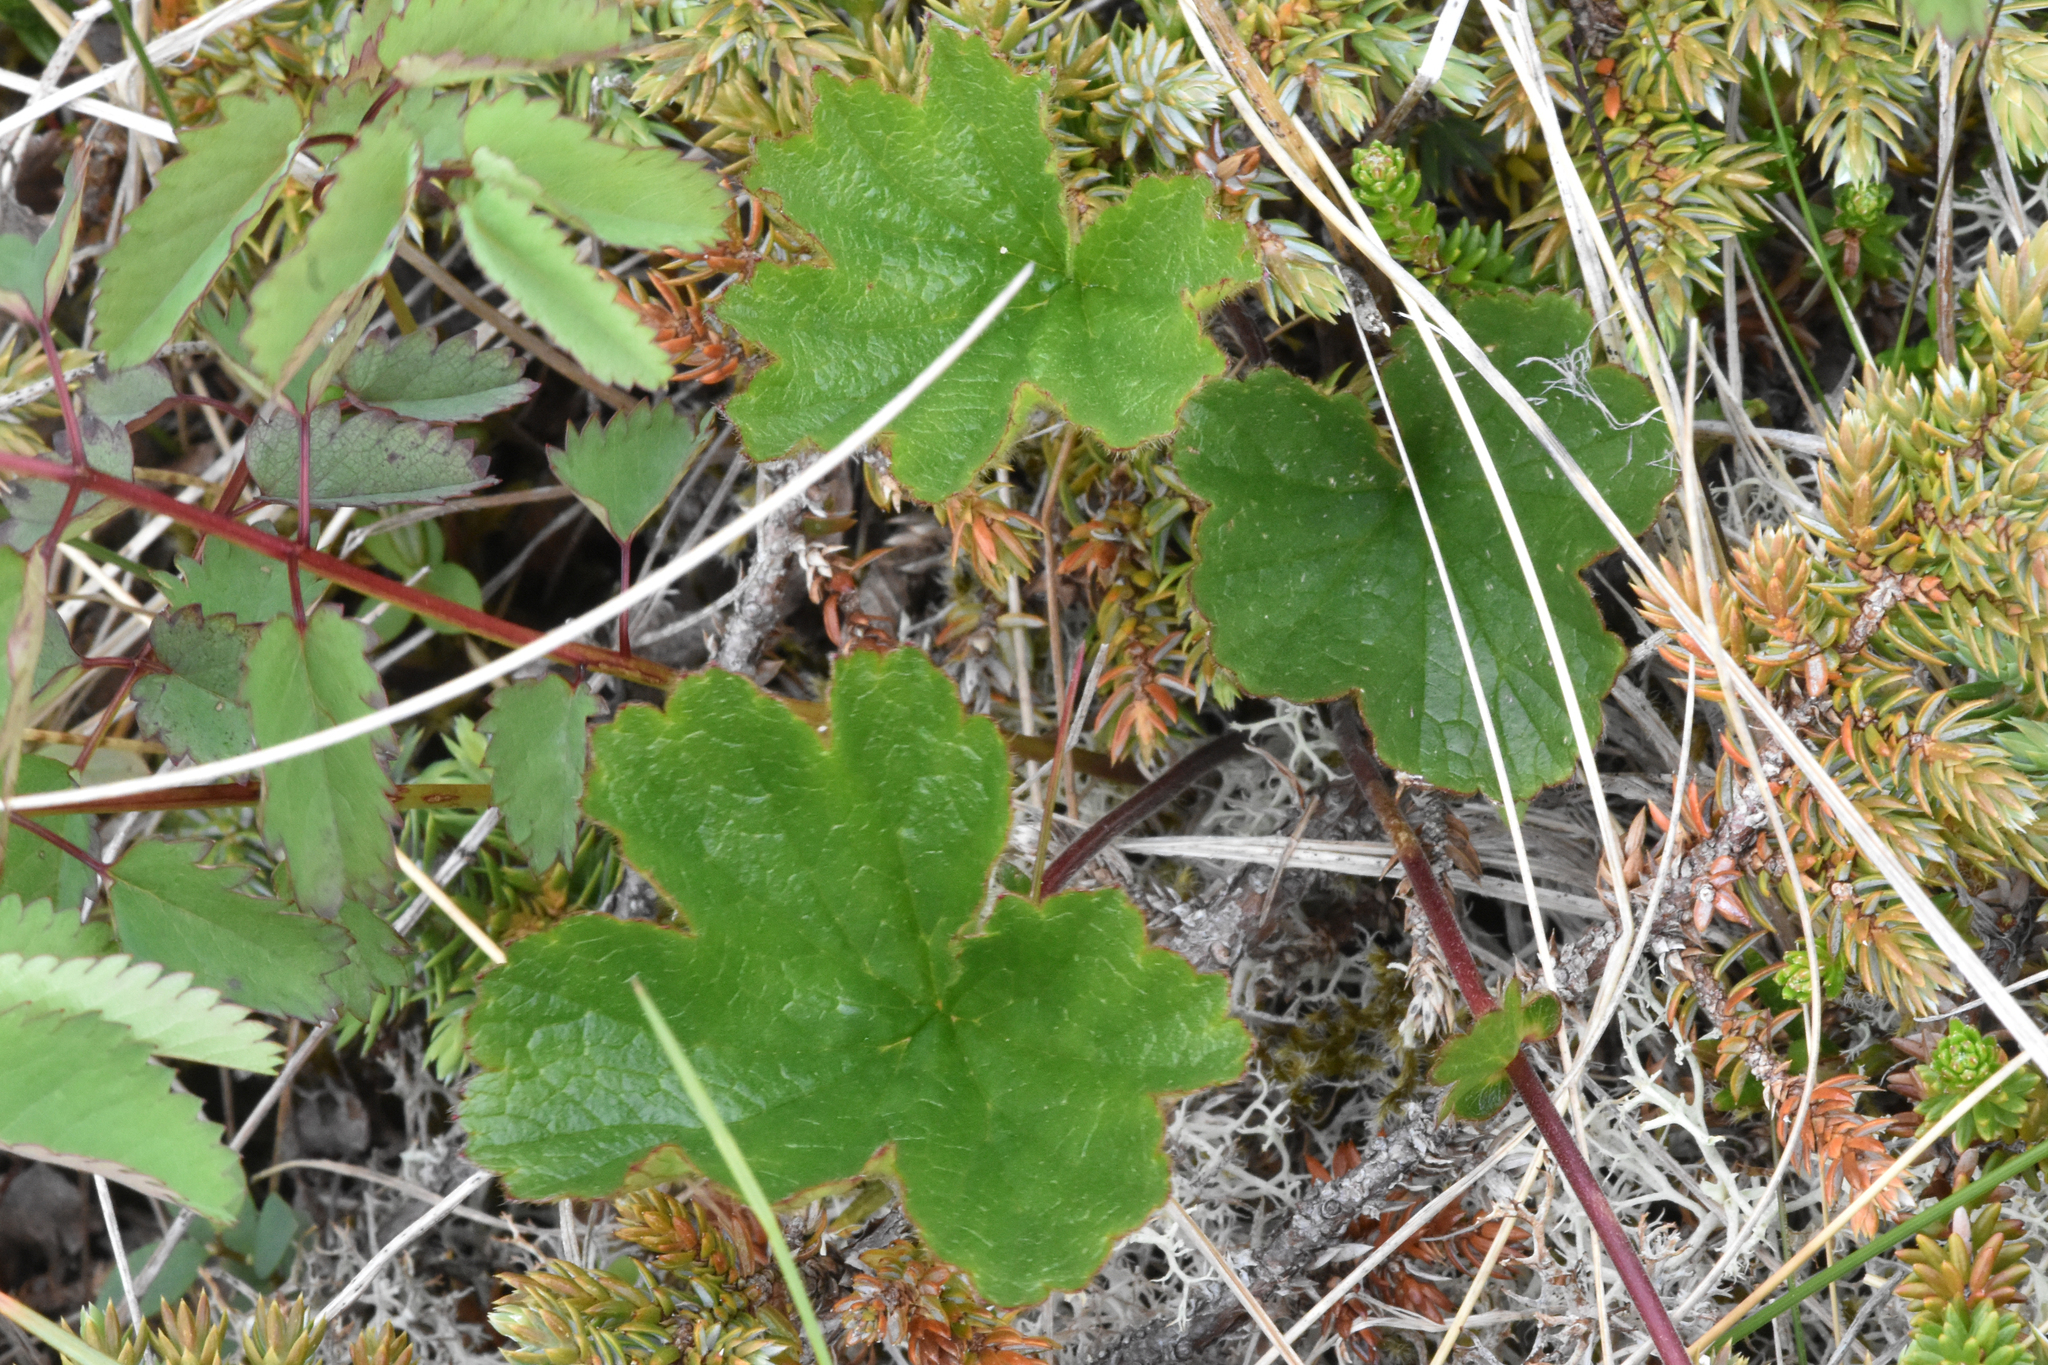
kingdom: Plantae
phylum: Tracheophyta
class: Magnoliopsida
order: Rosales
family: Rosaceae
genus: Geum
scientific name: Geum calthifolium
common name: Caltha-leaved avens
